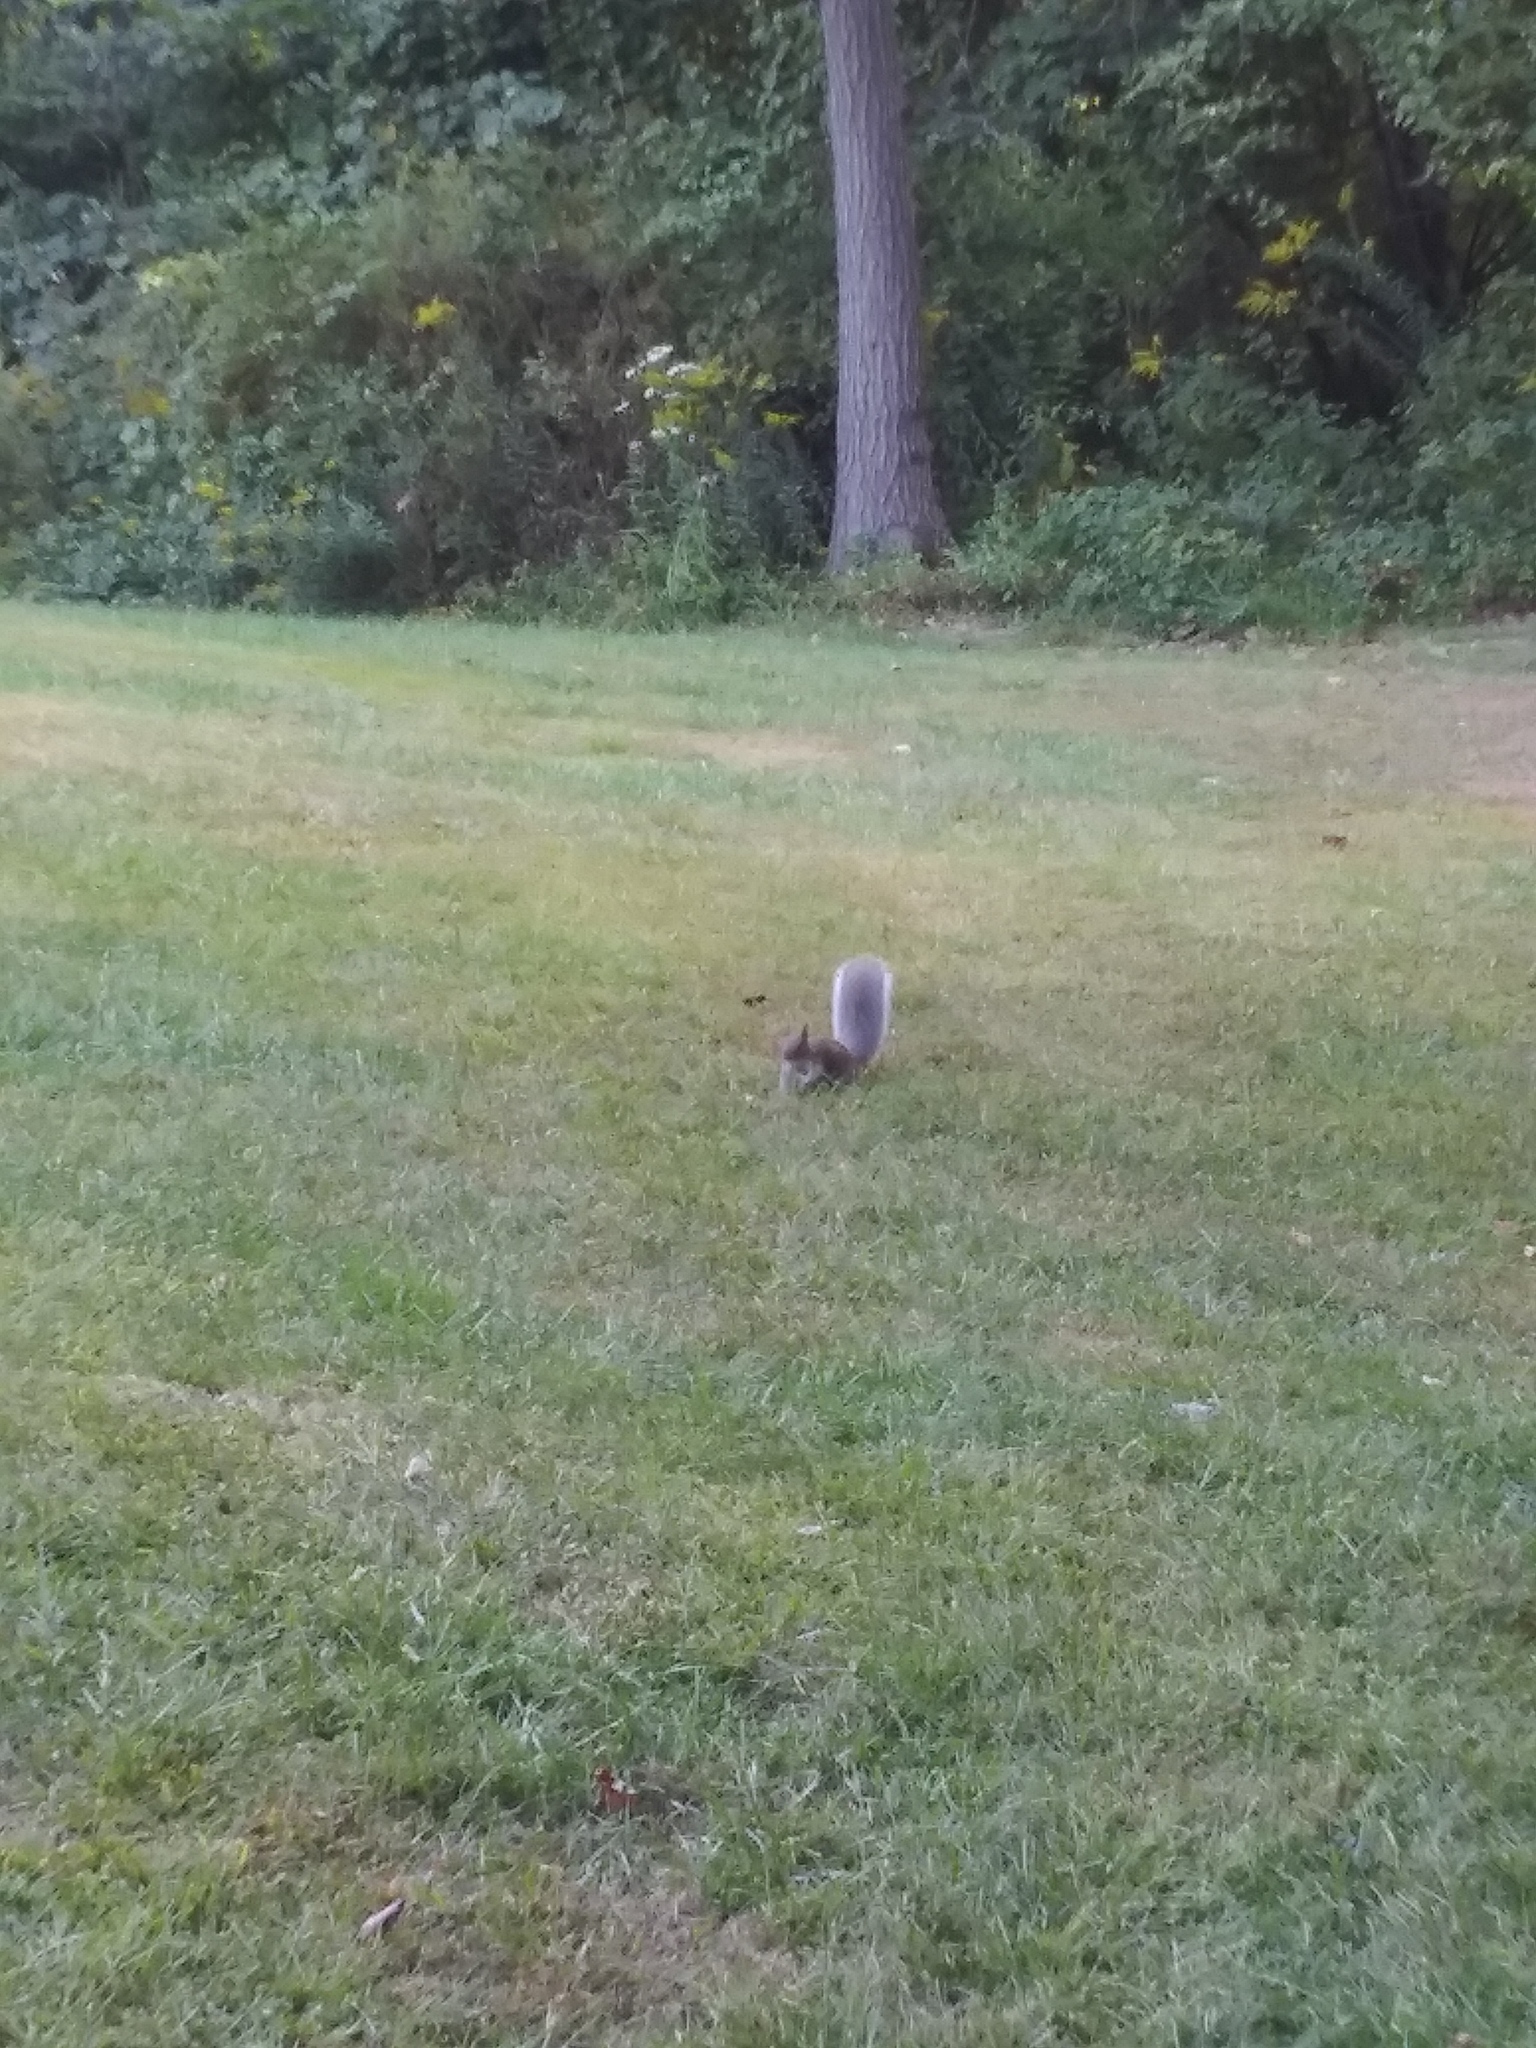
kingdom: Animalia
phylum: Chordata
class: Mammalia
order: Rodentia
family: Sciuridae
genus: Sciurus
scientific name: Sciurus carolinensis
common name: Eastern gray squirrel
